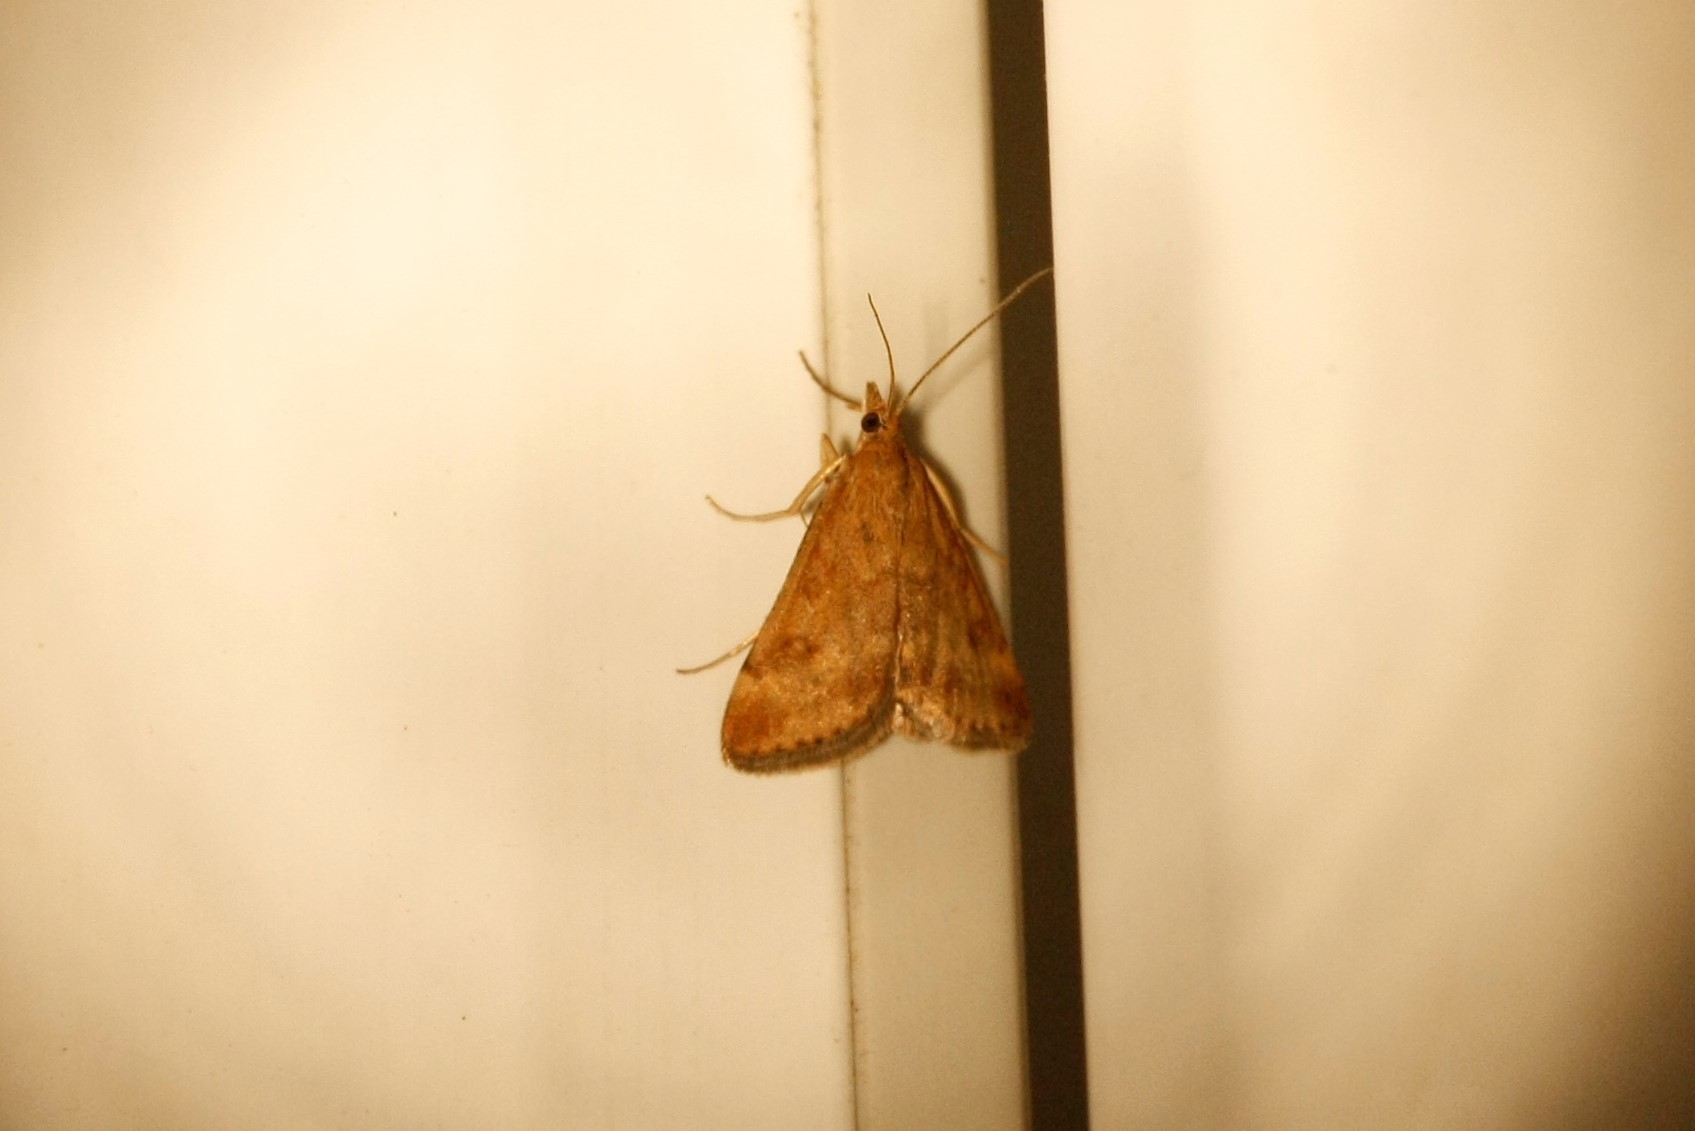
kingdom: Animalia
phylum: Arthropoda
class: Insecta
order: Lepidoptera
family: Crambidae
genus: Pyrausta
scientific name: Pyrausta despicata
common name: Straw-barred pearl
